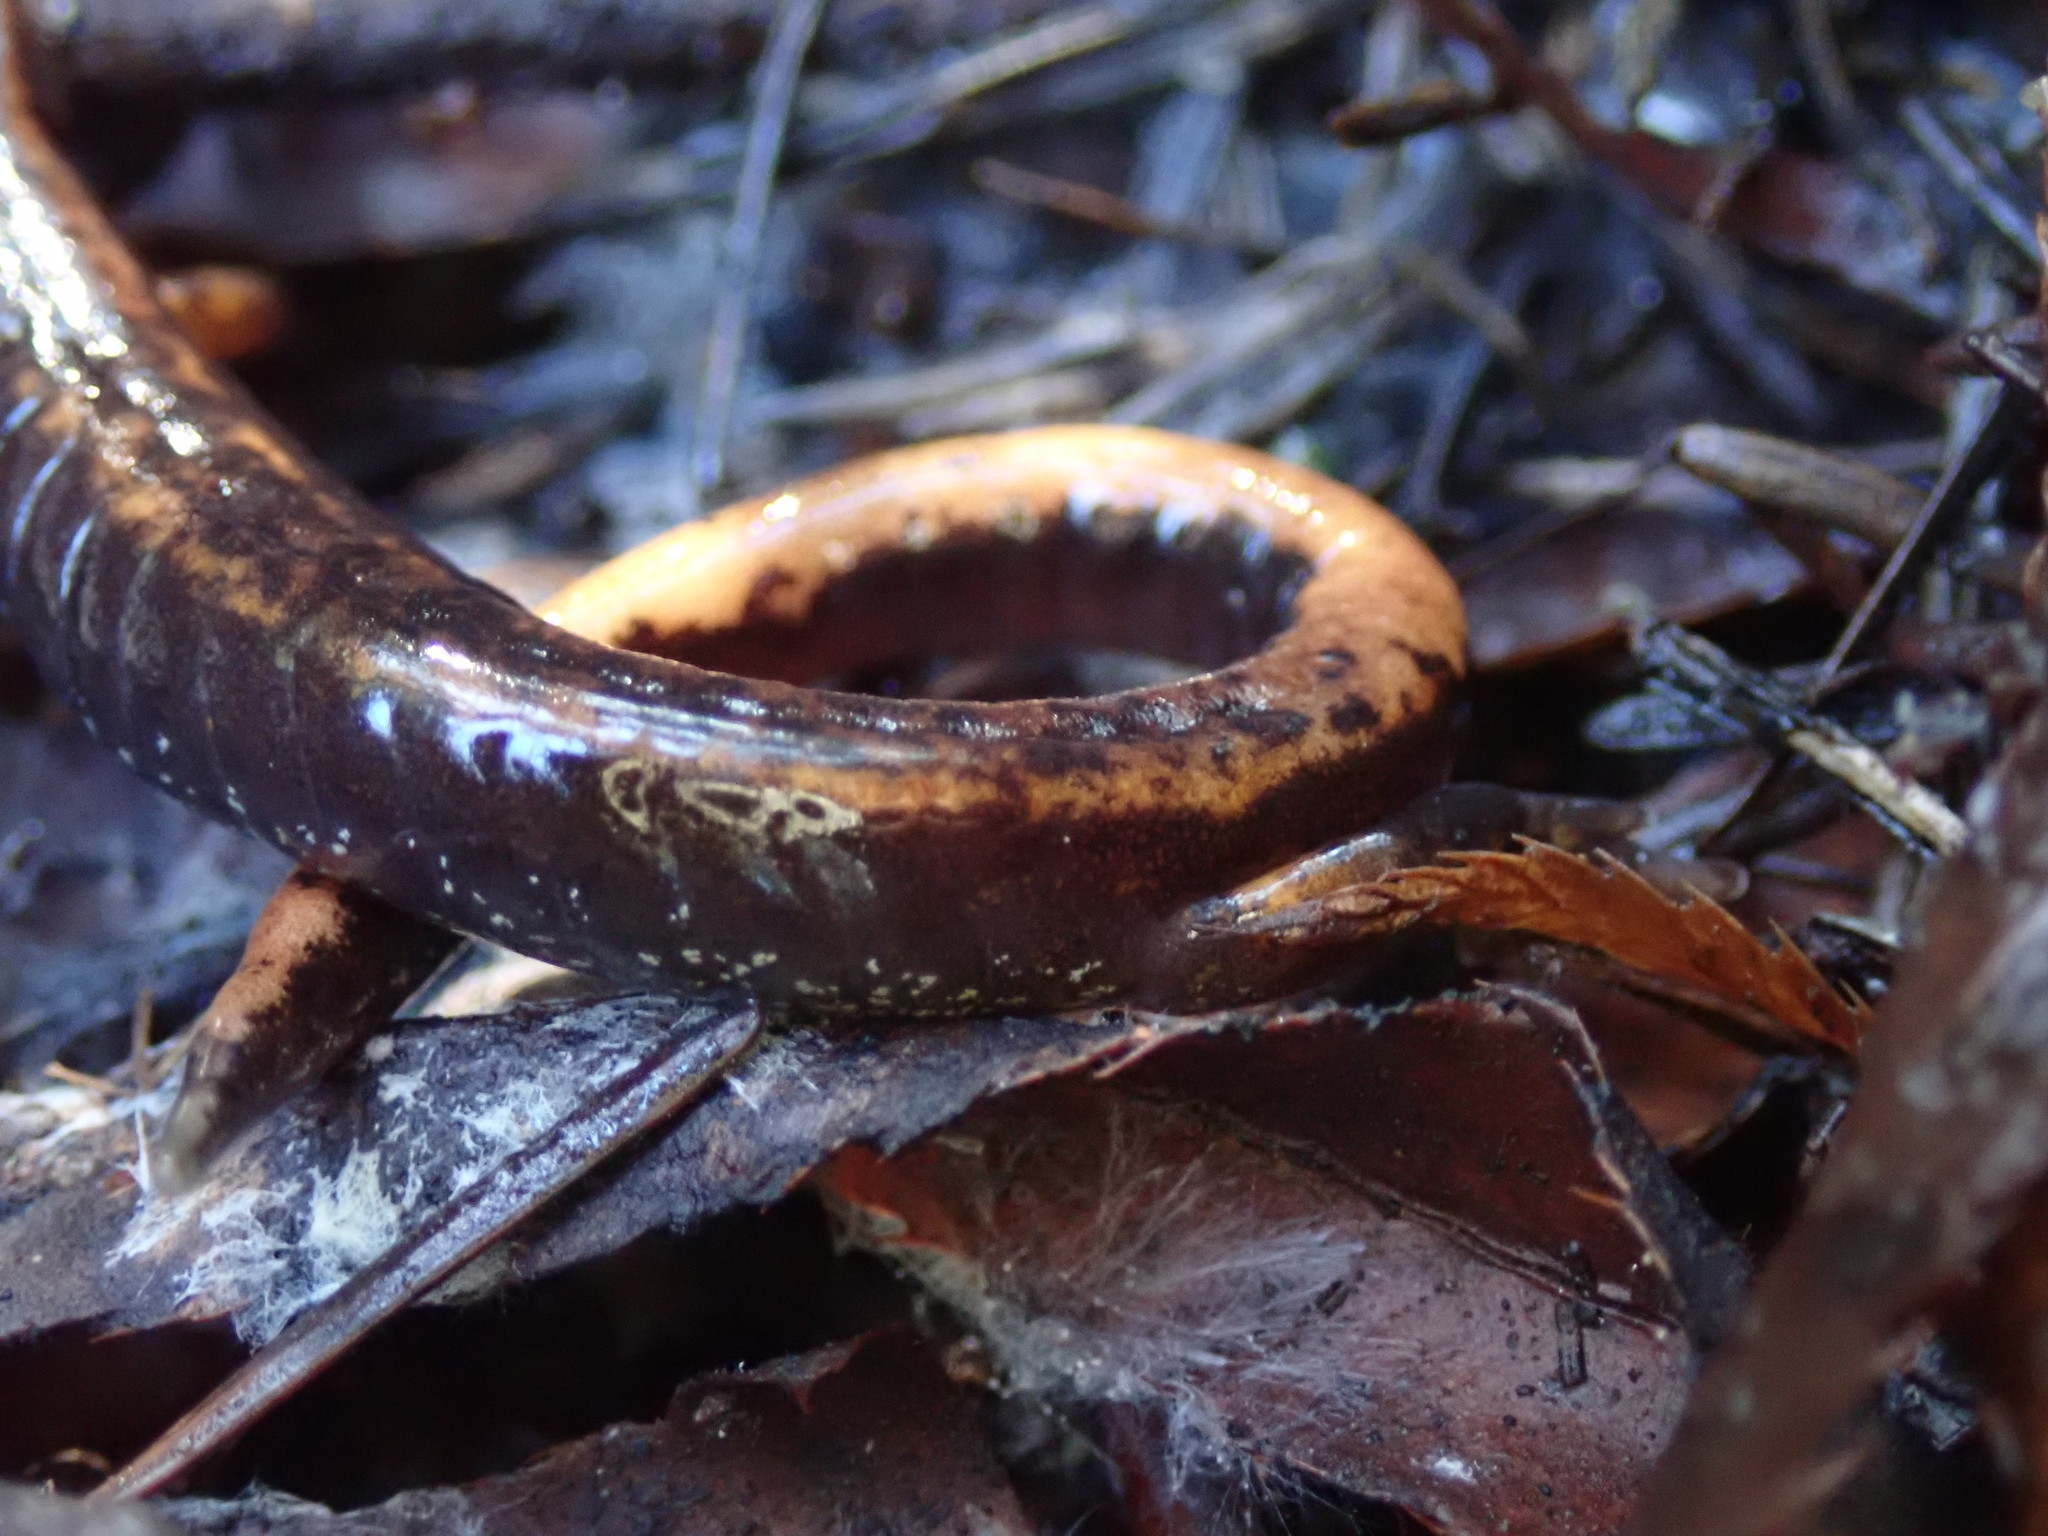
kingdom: Animalia
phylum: Chordata
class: Amphibia
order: Caudata
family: Plethodontidae
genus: Plethodon
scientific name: Plethodon vehiculum
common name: Western red-backed salamander
